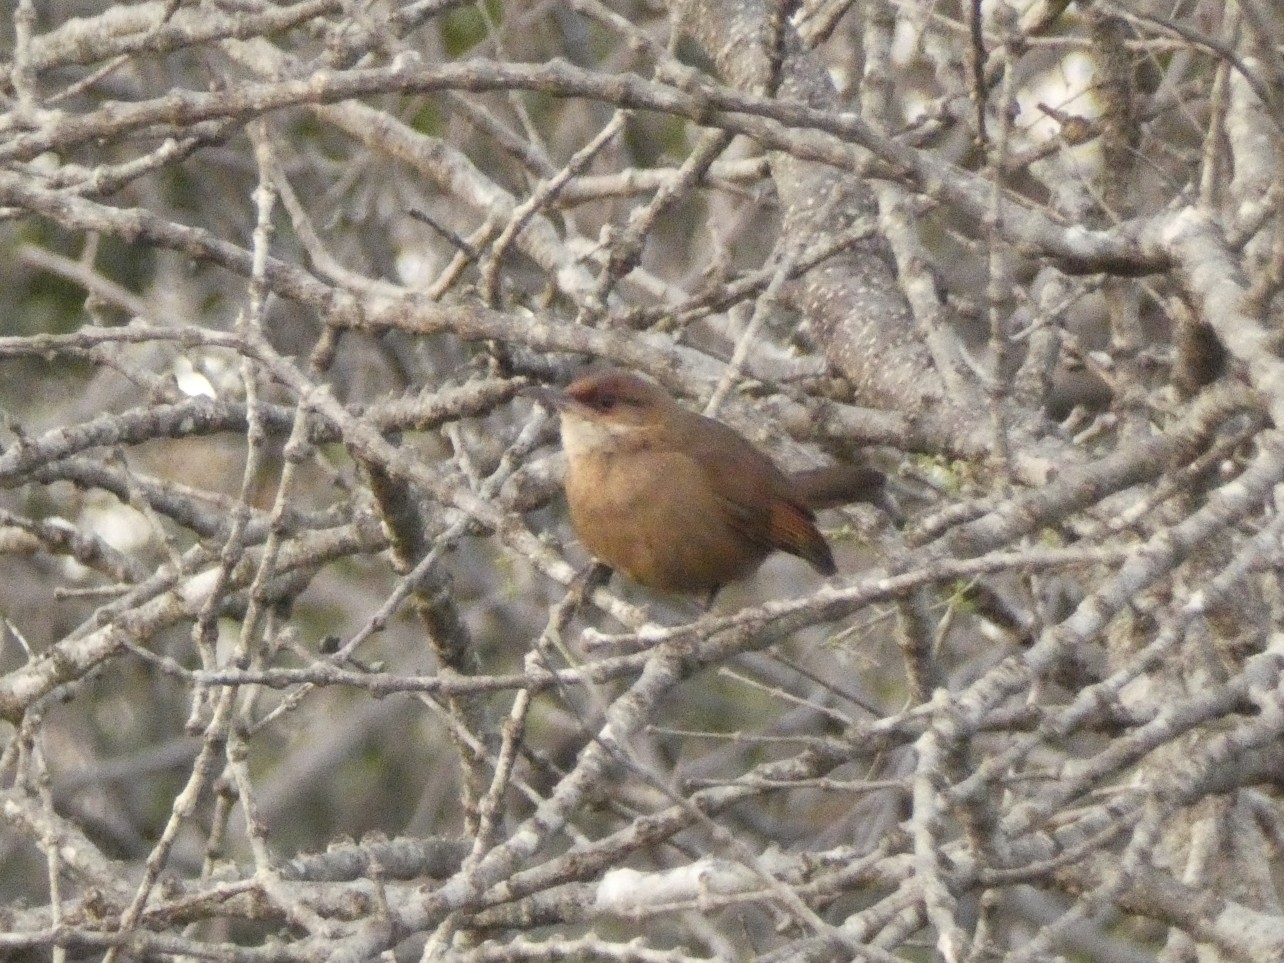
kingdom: Animalia
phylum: Chordata
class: Aves
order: Passeriformes
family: Furnariidae
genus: Upucerthia
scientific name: Upucerthia certhioides
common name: Chaco earthcreeper
